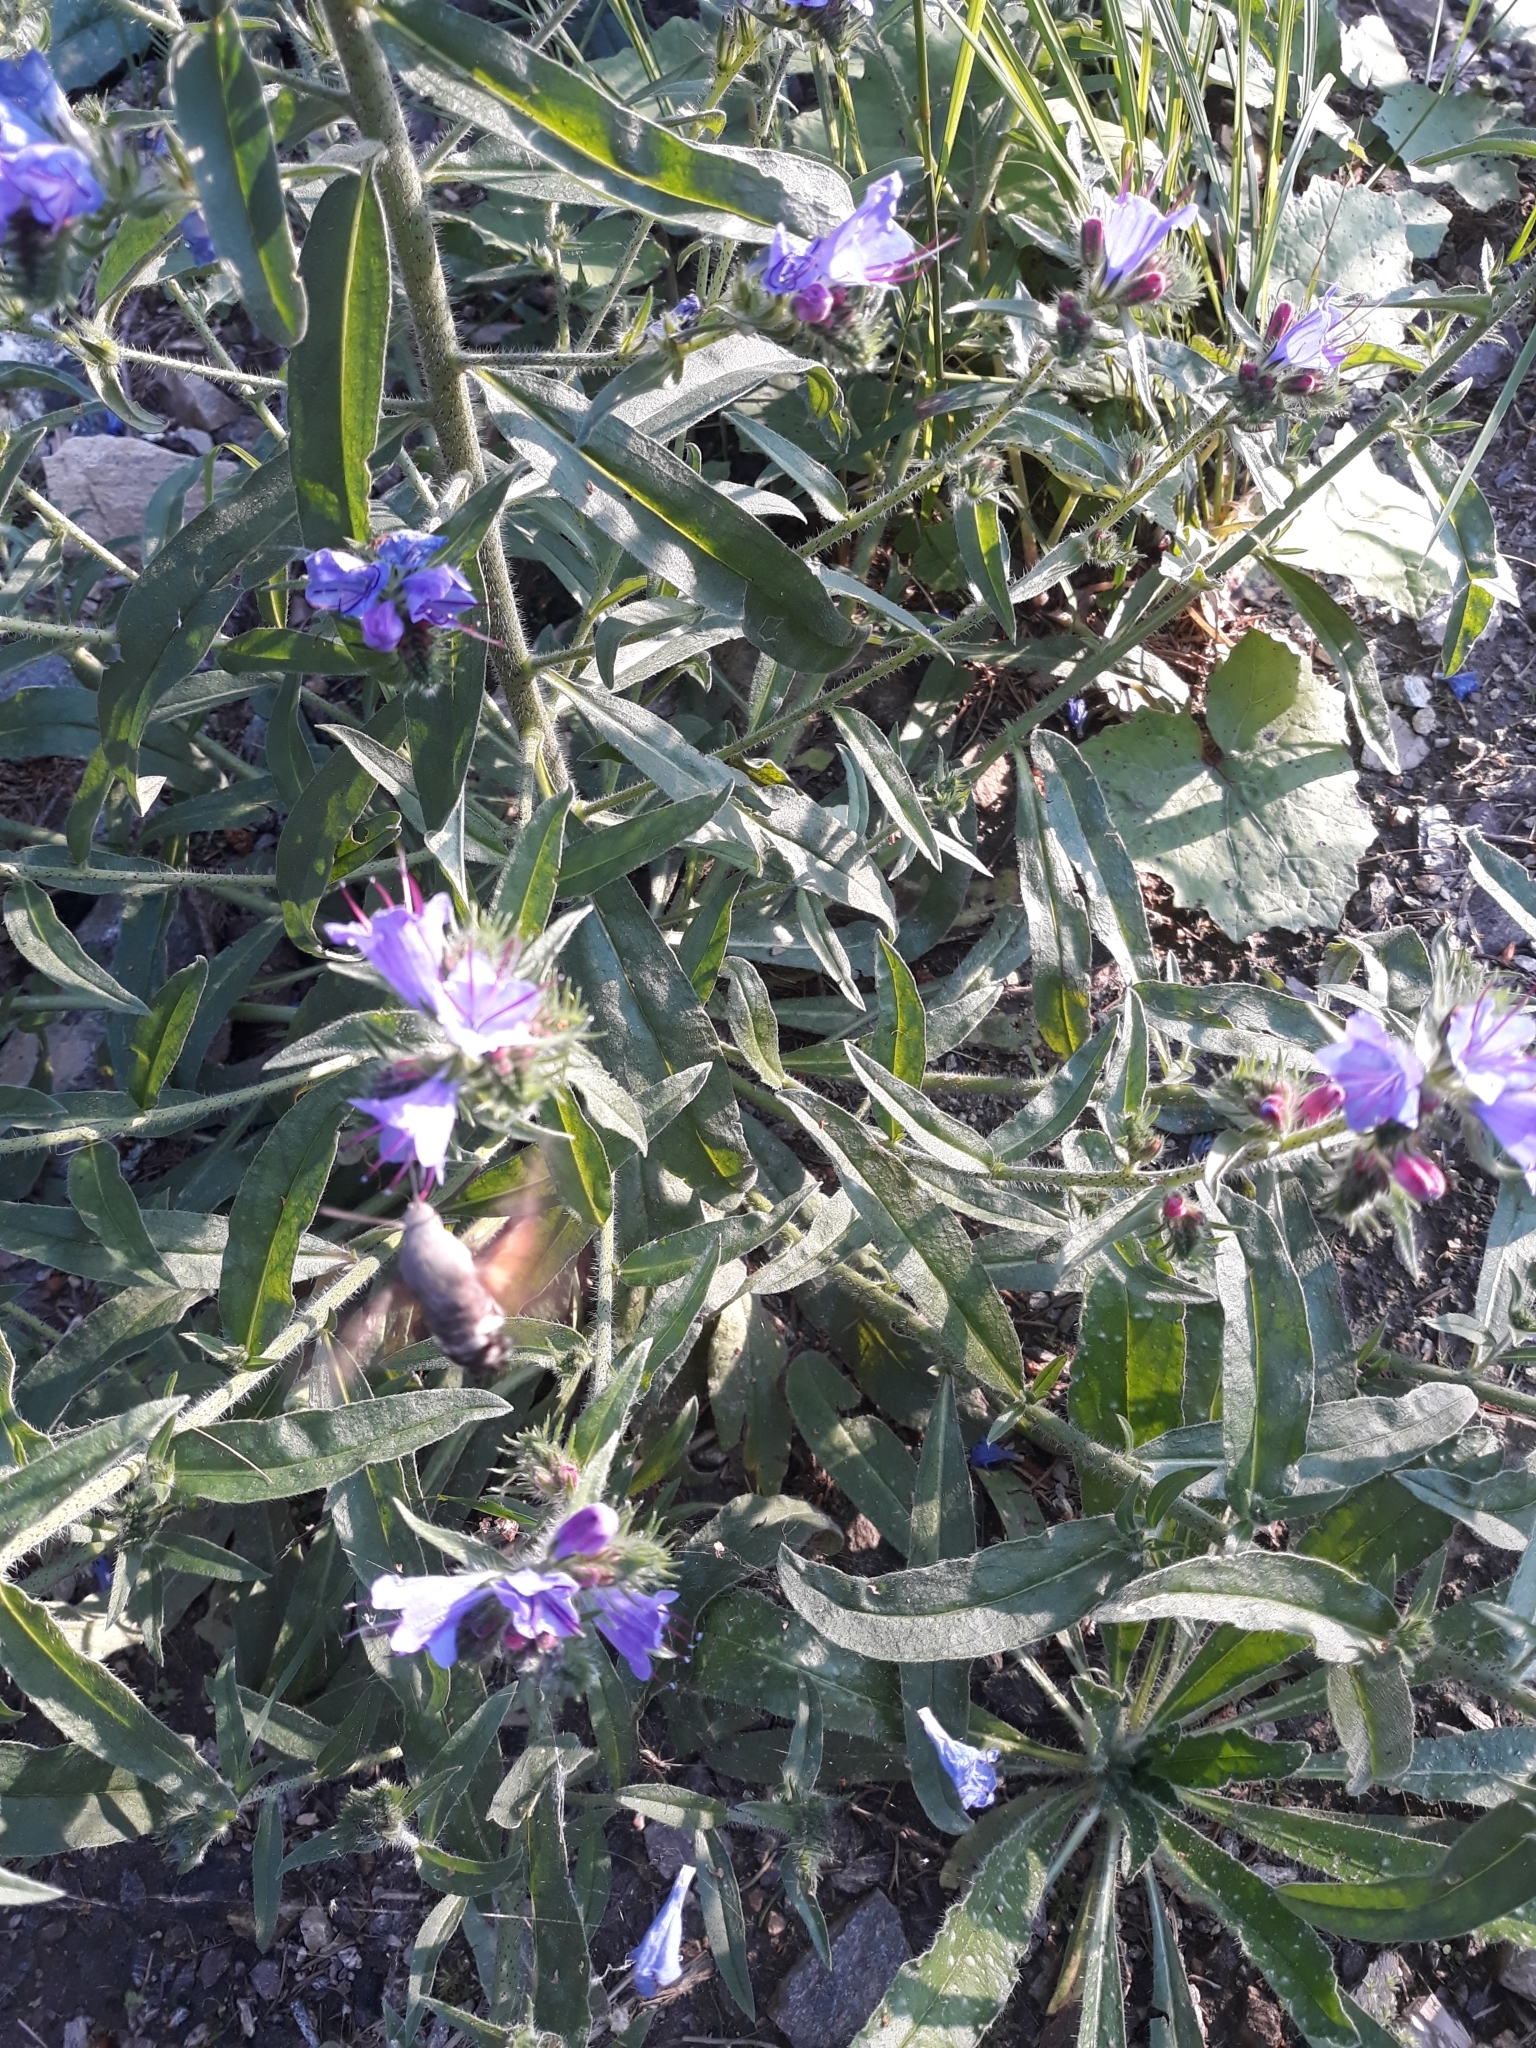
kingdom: Animalia
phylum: Arthropoda
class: Insecta
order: Lepidoptera
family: Sphingidae
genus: Macroglossum
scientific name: Macroglossum stellatarum
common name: Humming-bird hawk-moth
